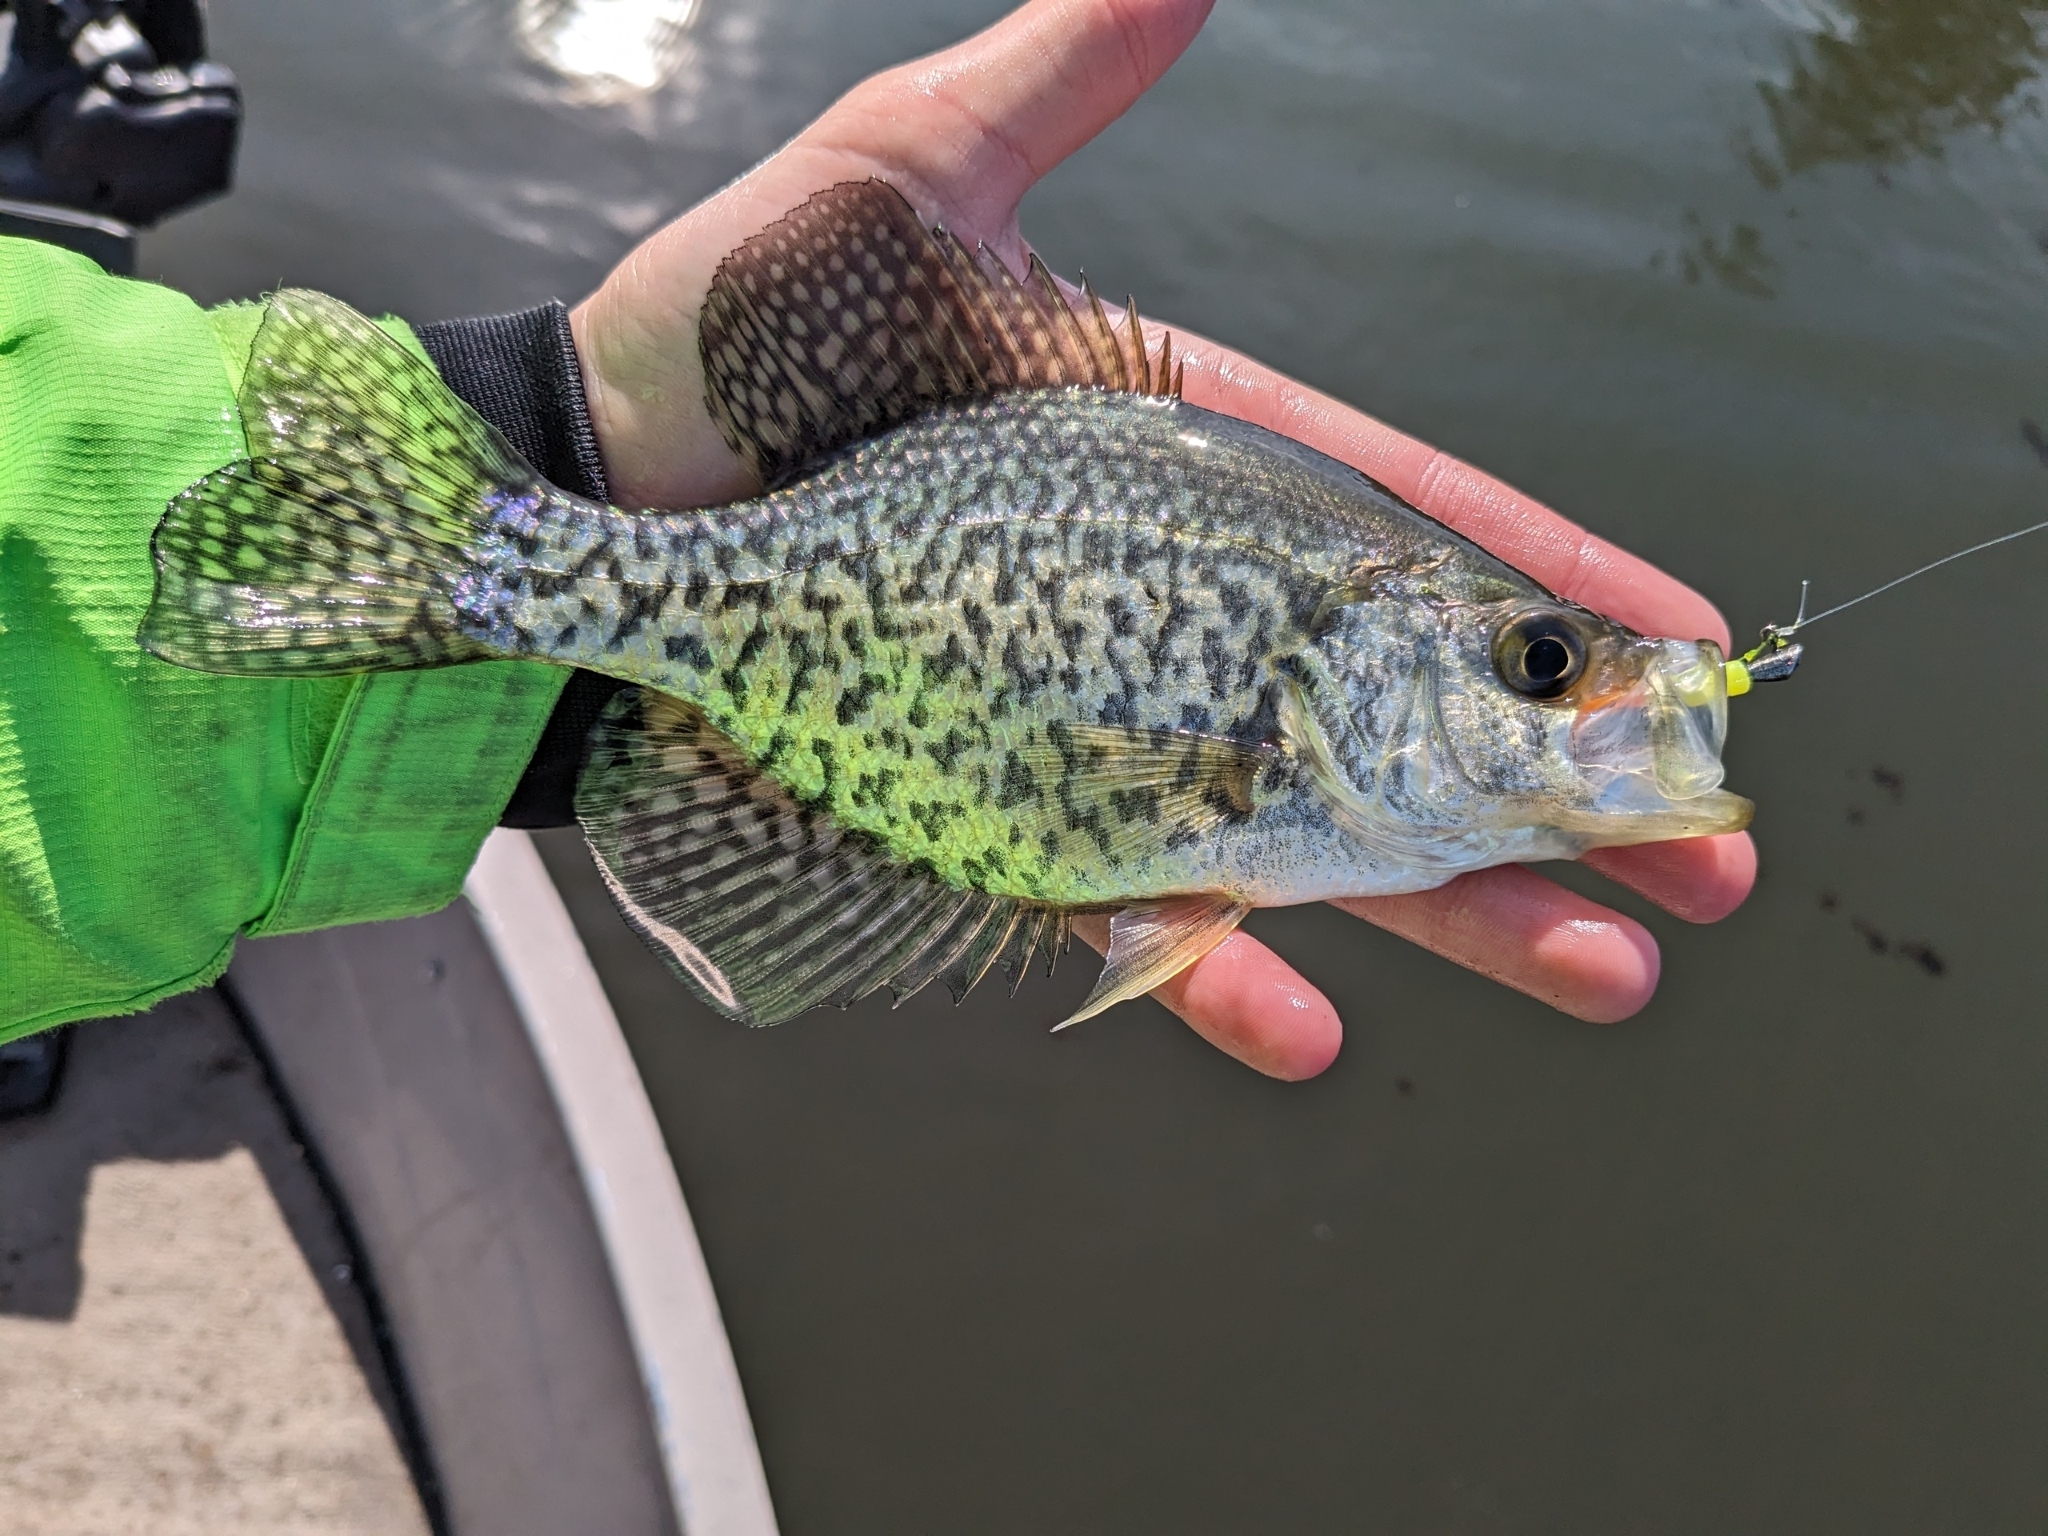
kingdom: Animalia
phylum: Chordata
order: Perciformes
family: Centrarchidae
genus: Pomoxis
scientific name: Pomoxis nigromaculatus
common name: Black crappie
